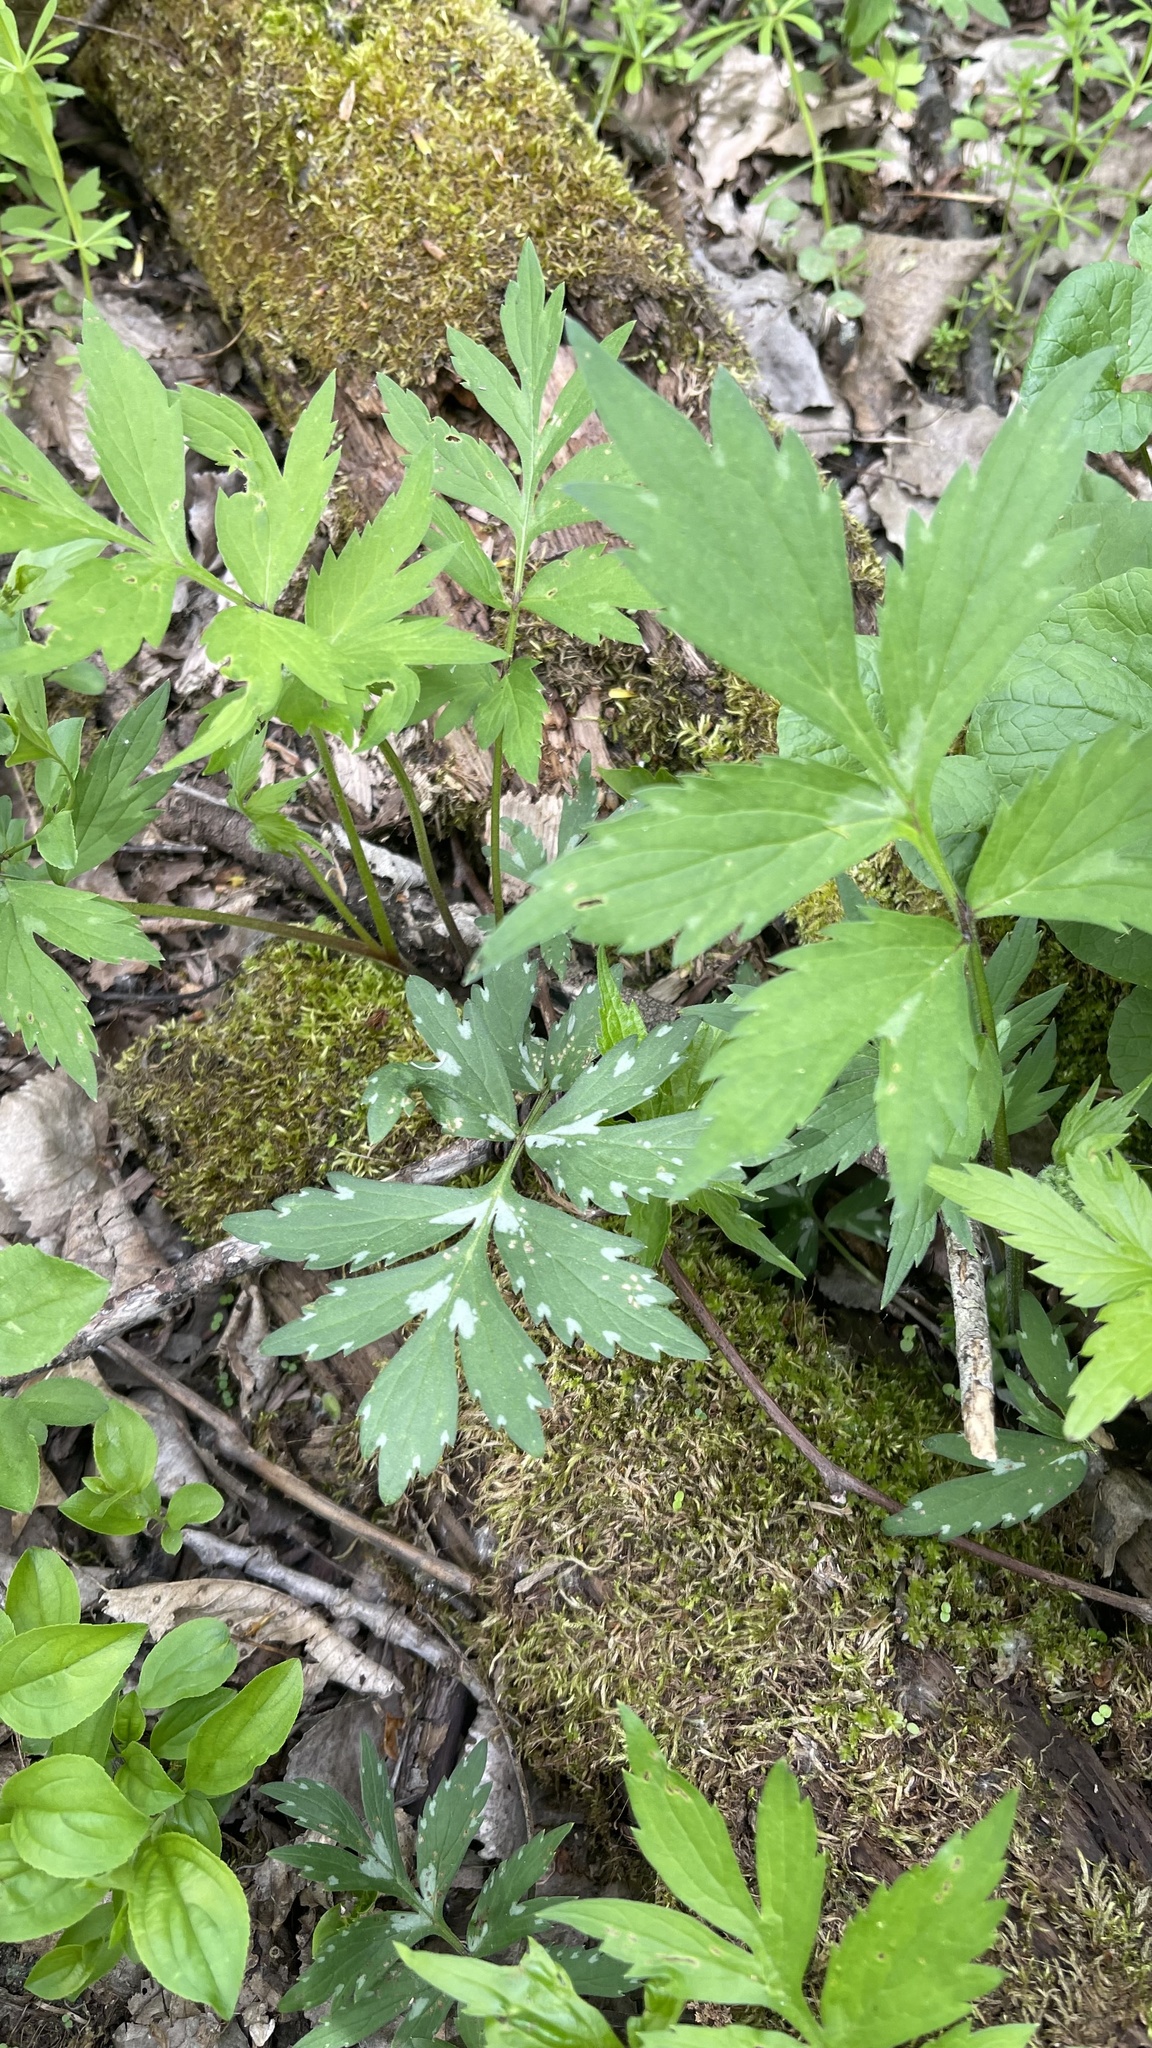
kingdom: Plantae
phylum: Tracheophyta
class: Magnoliopsida
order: Boraginales
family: Hydrophyllaceae
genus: Hydrophyllum
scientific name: Hydrophyllum virginianum
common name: Virginia waterleaf
